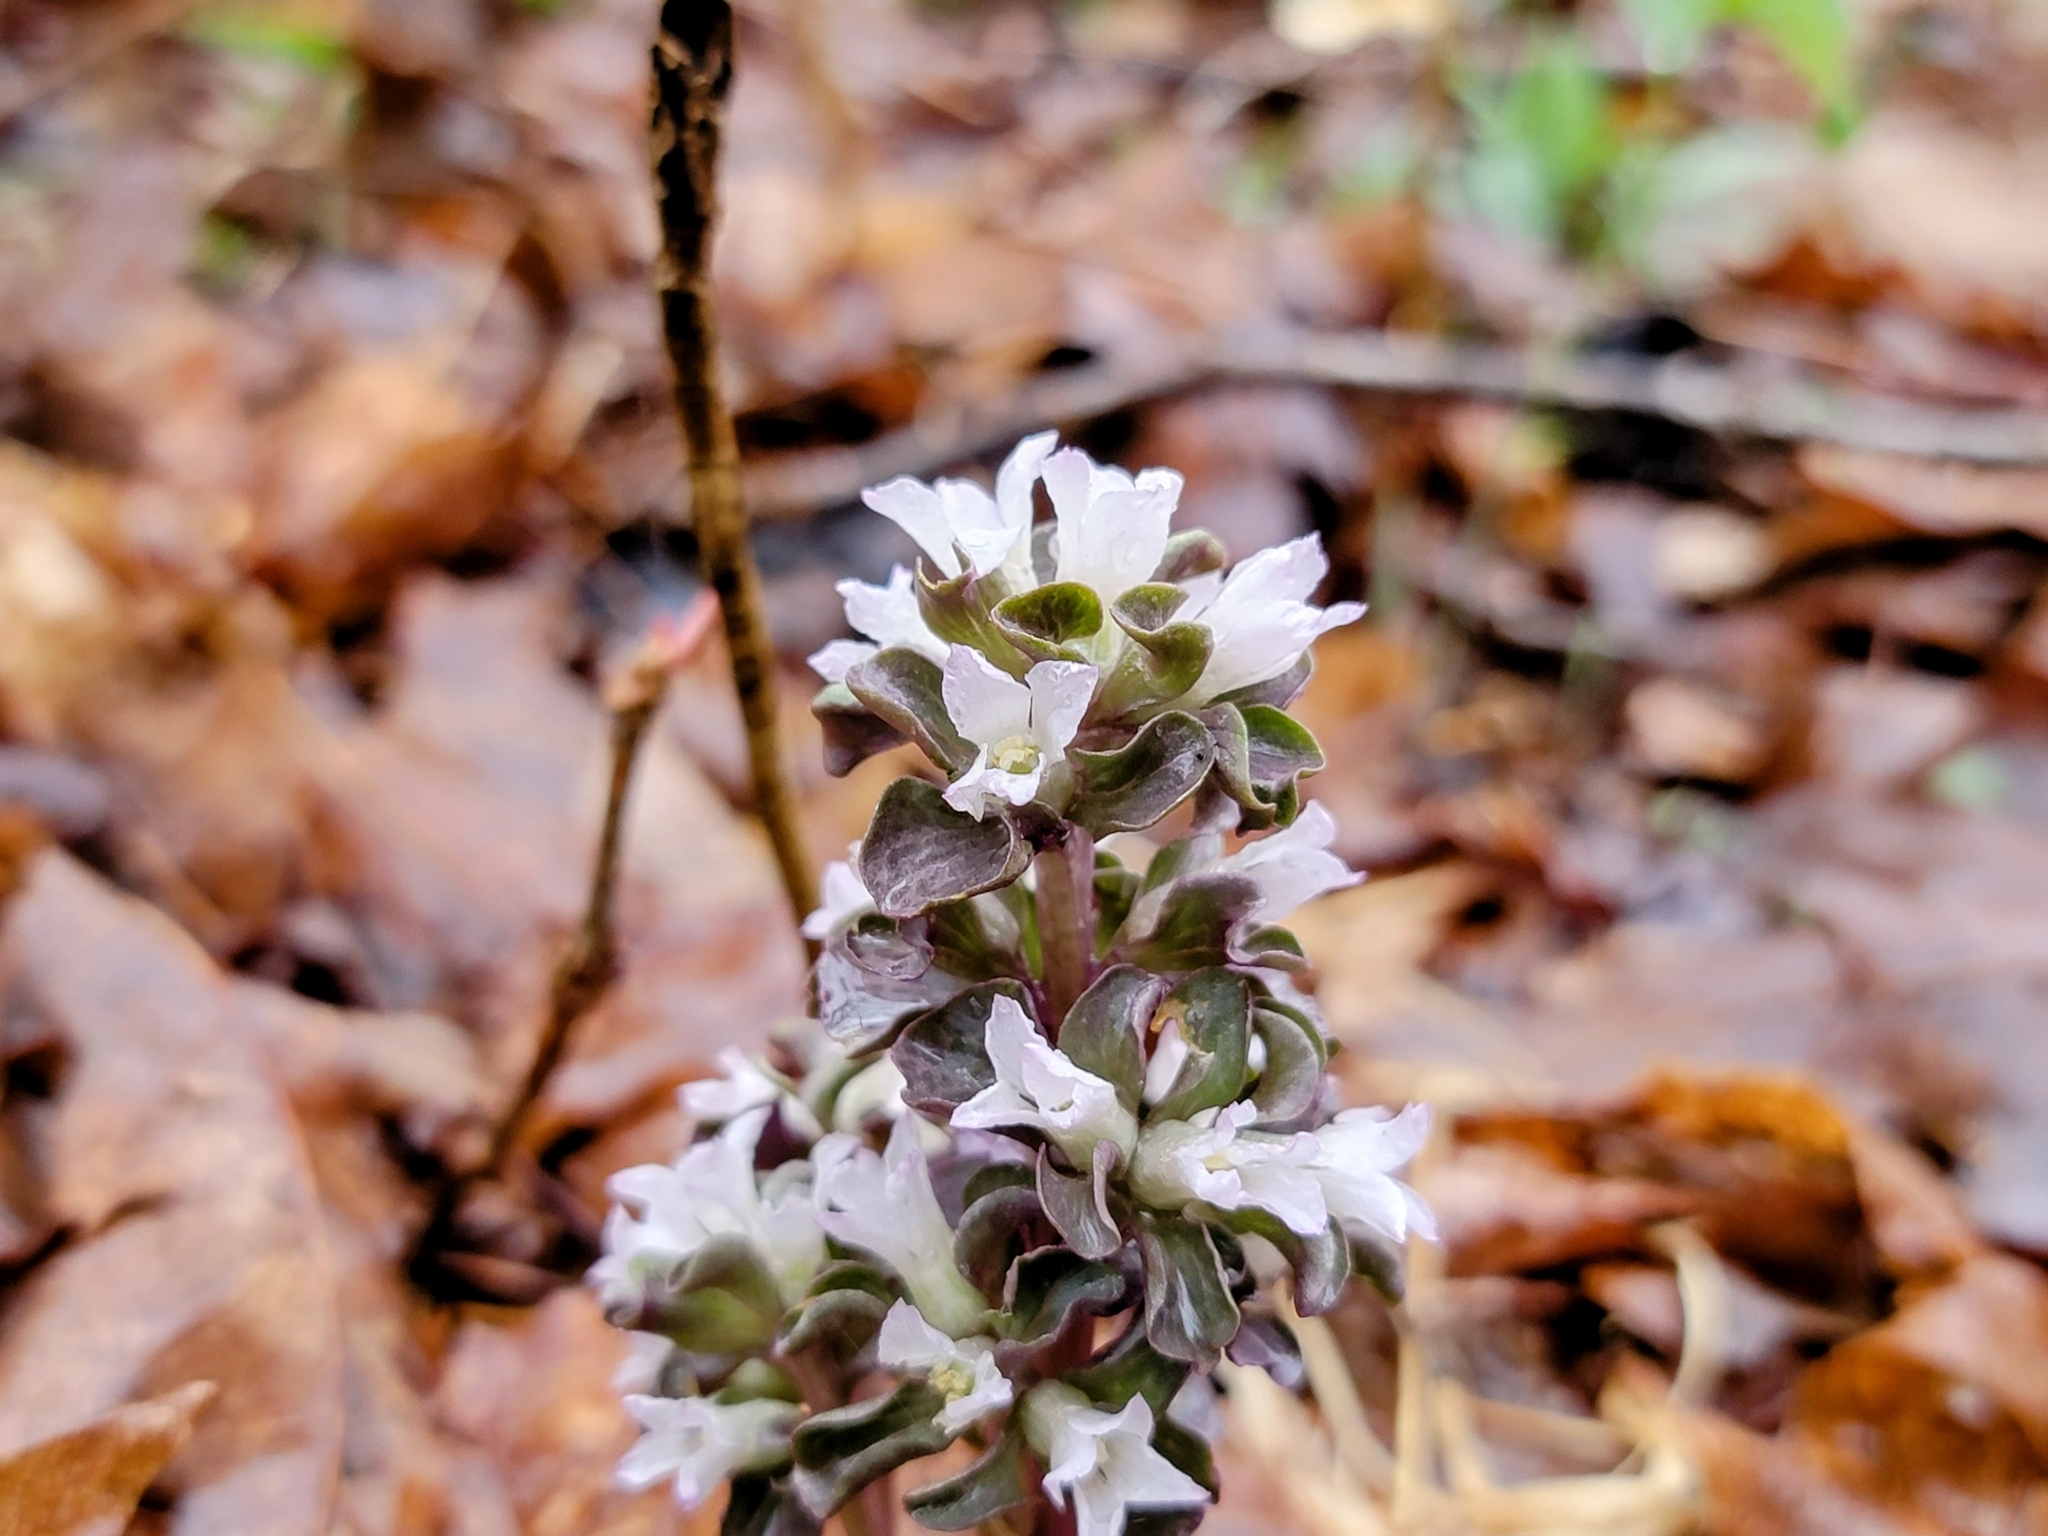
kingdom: Plantae
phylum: Tracheophyta
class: Magnoliopsida
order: Gentianales
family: Gentianaceae
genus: Obolaria
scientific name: Obolaria virginica
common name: Pennywort
